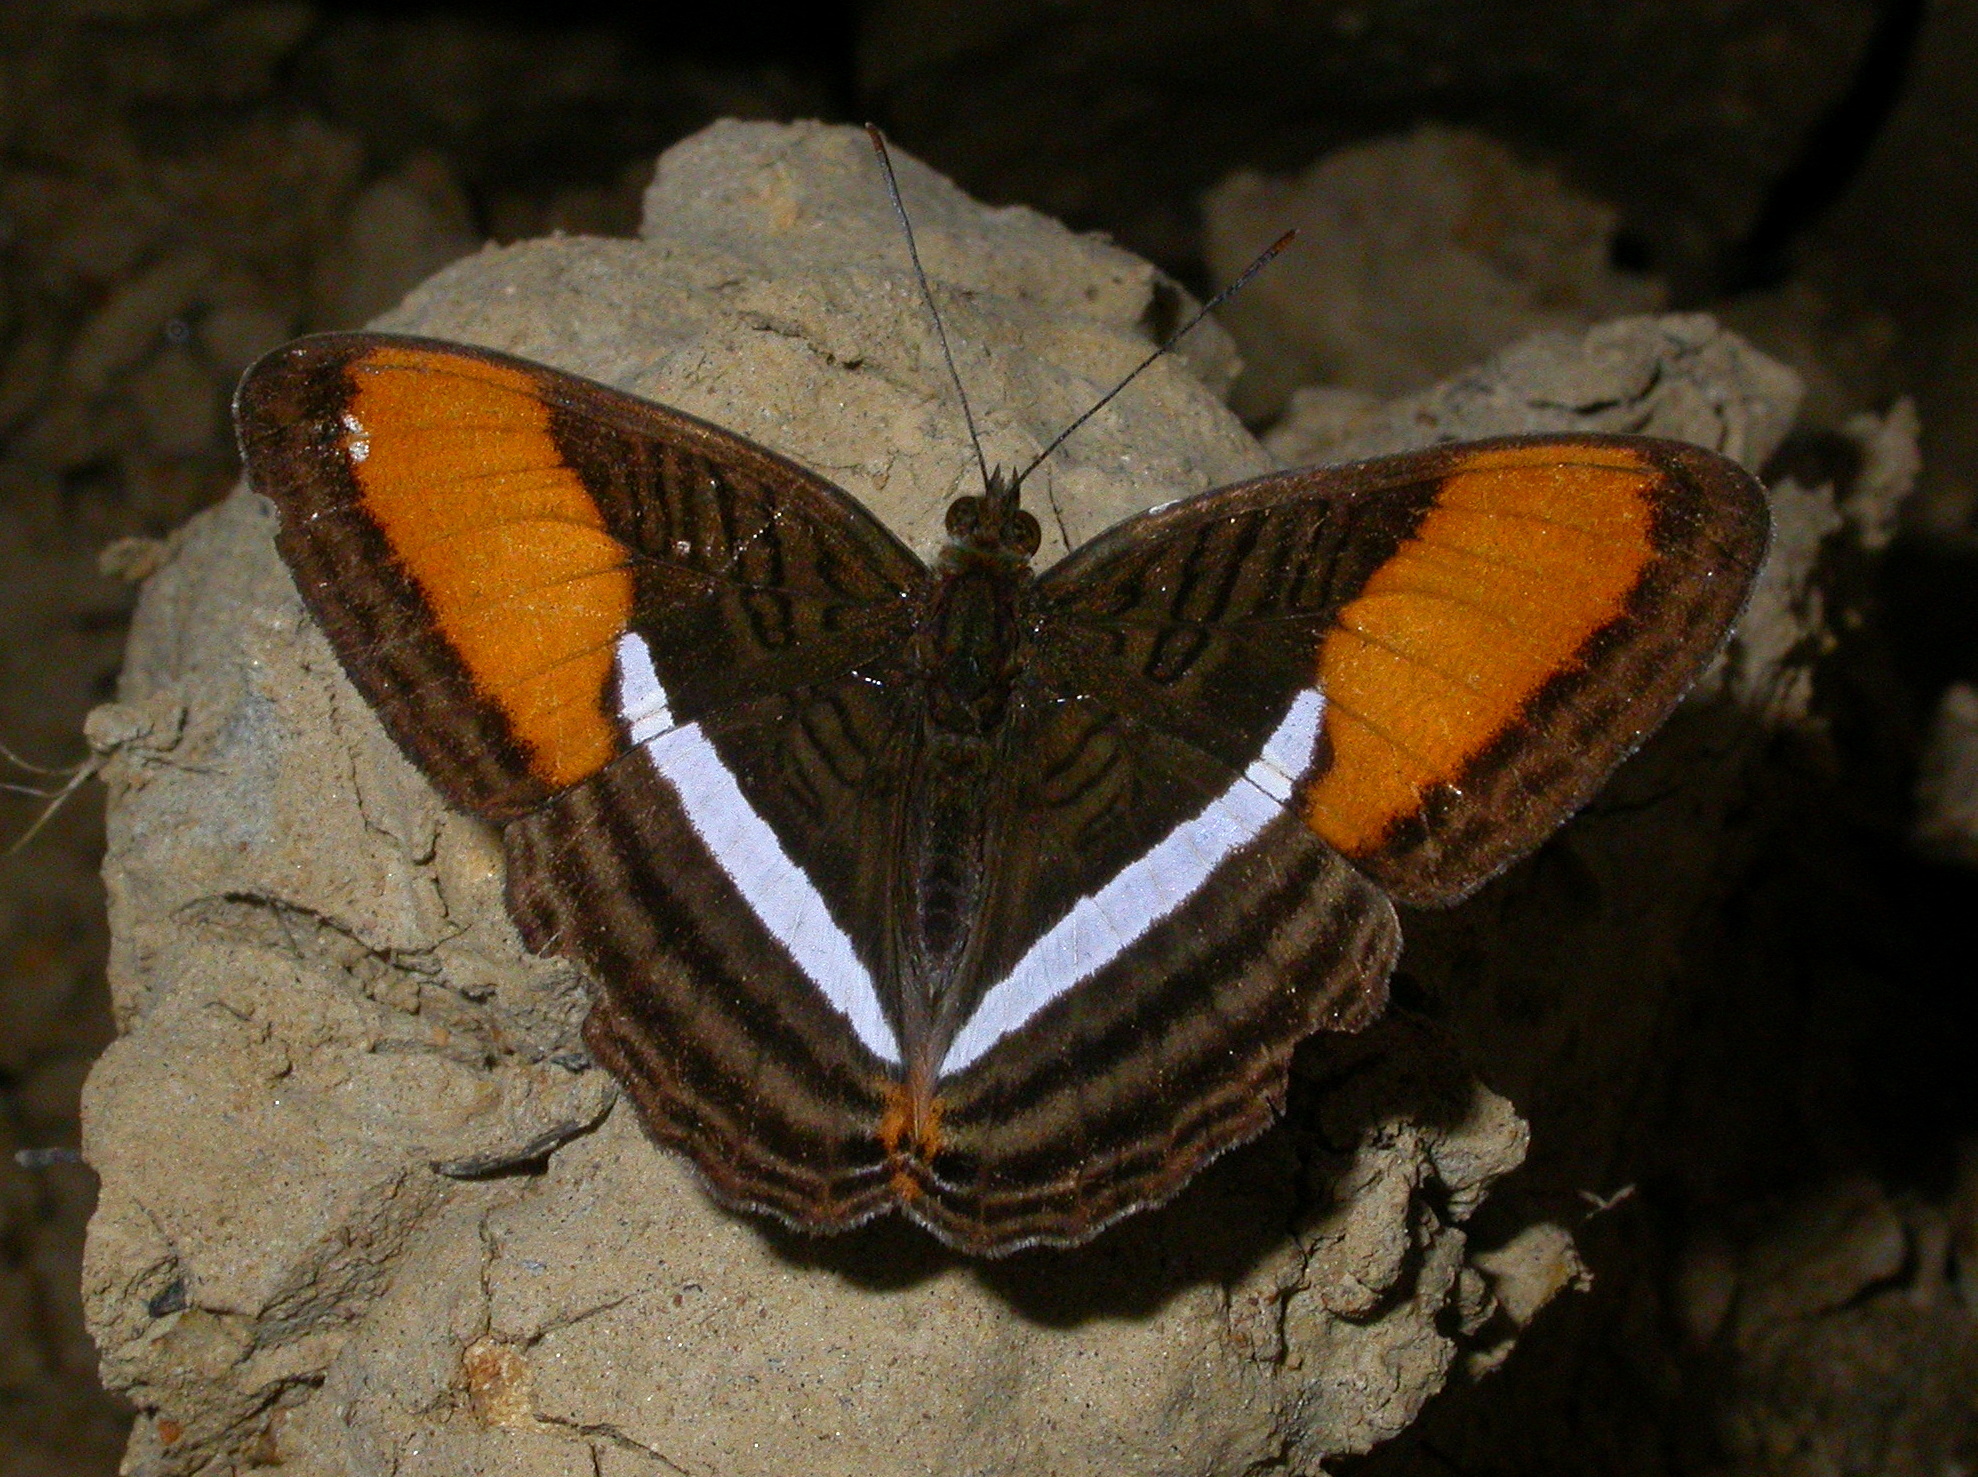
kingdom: Animalia
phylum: Arthropoda
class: Insecta
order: Lepidoptera
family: Nymphalidae
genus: Limenitis
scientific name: Limenitis cytherea
